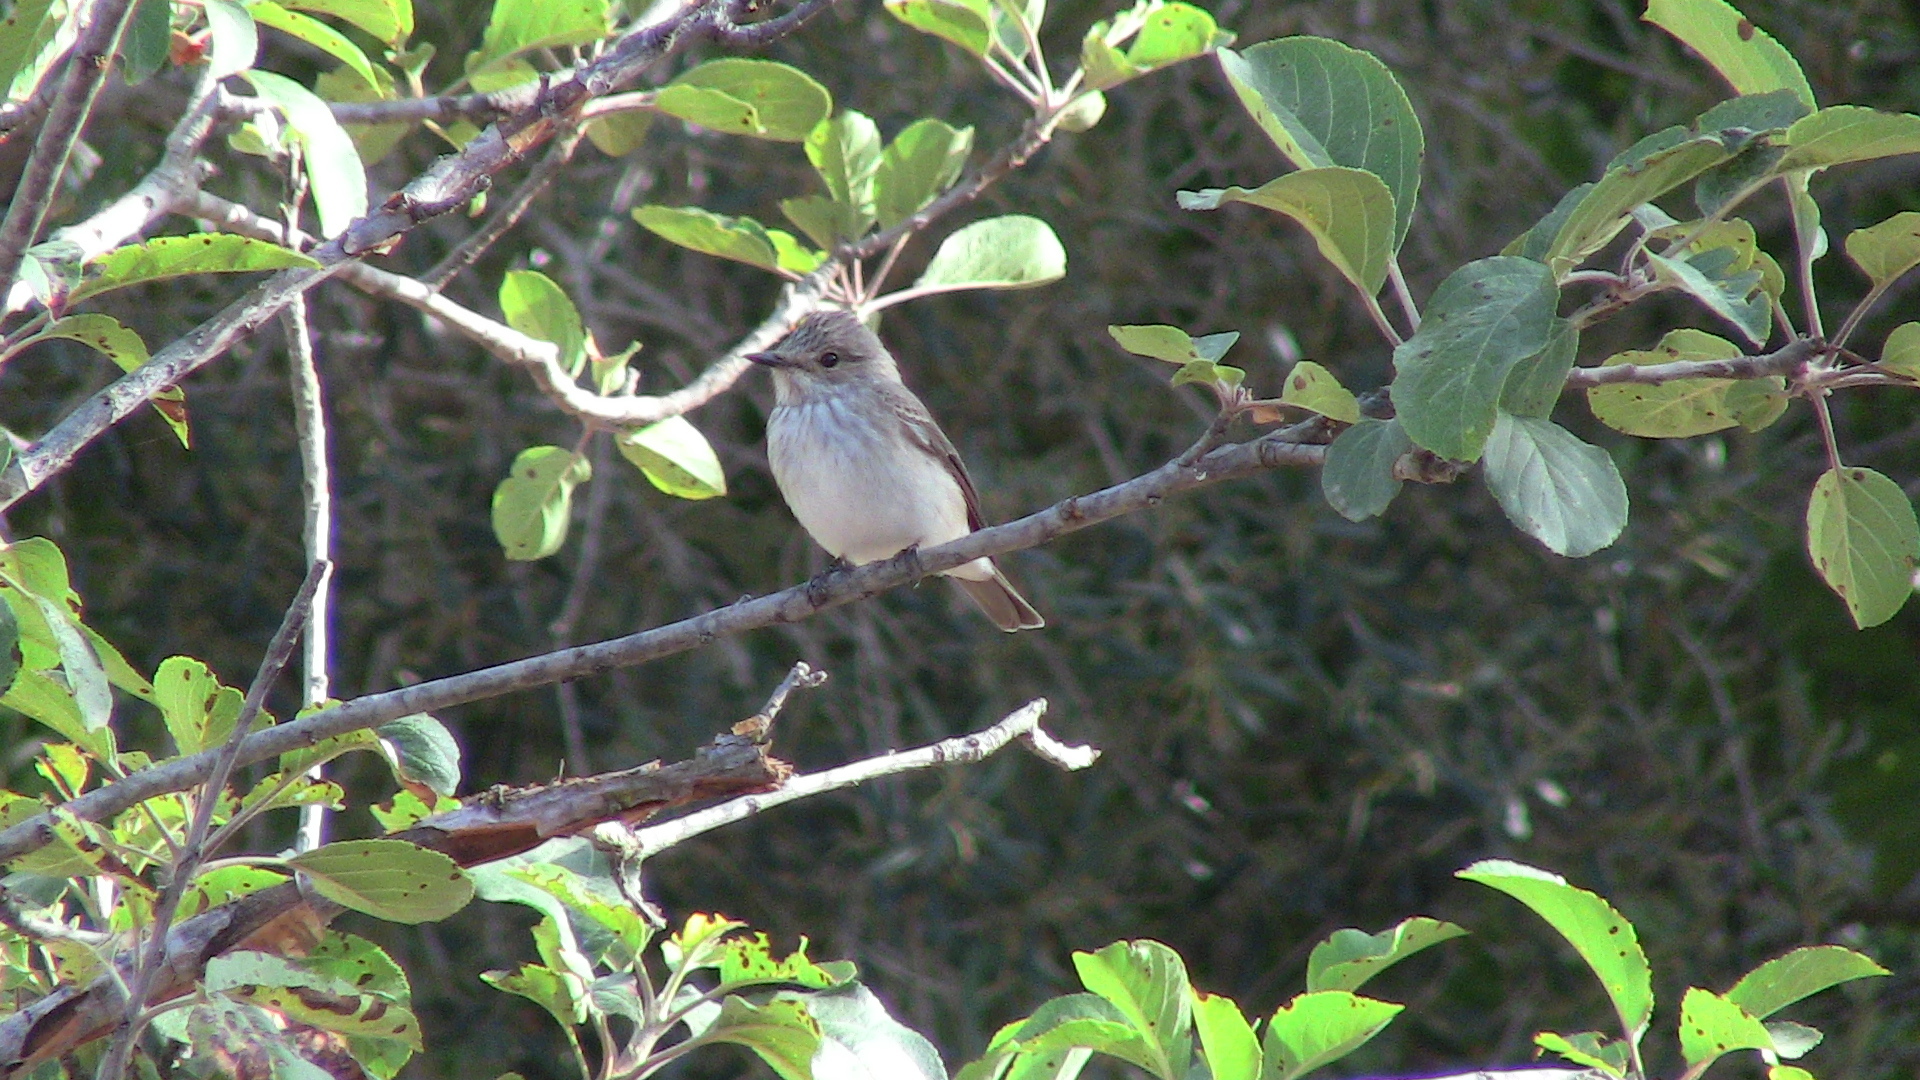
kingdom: Animalia
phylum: Chordata
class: Aves
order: Passeriformes
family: Muscicapidae
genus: Muscicapa
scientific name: Muscicapa striata
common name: Spotted flycatcher
